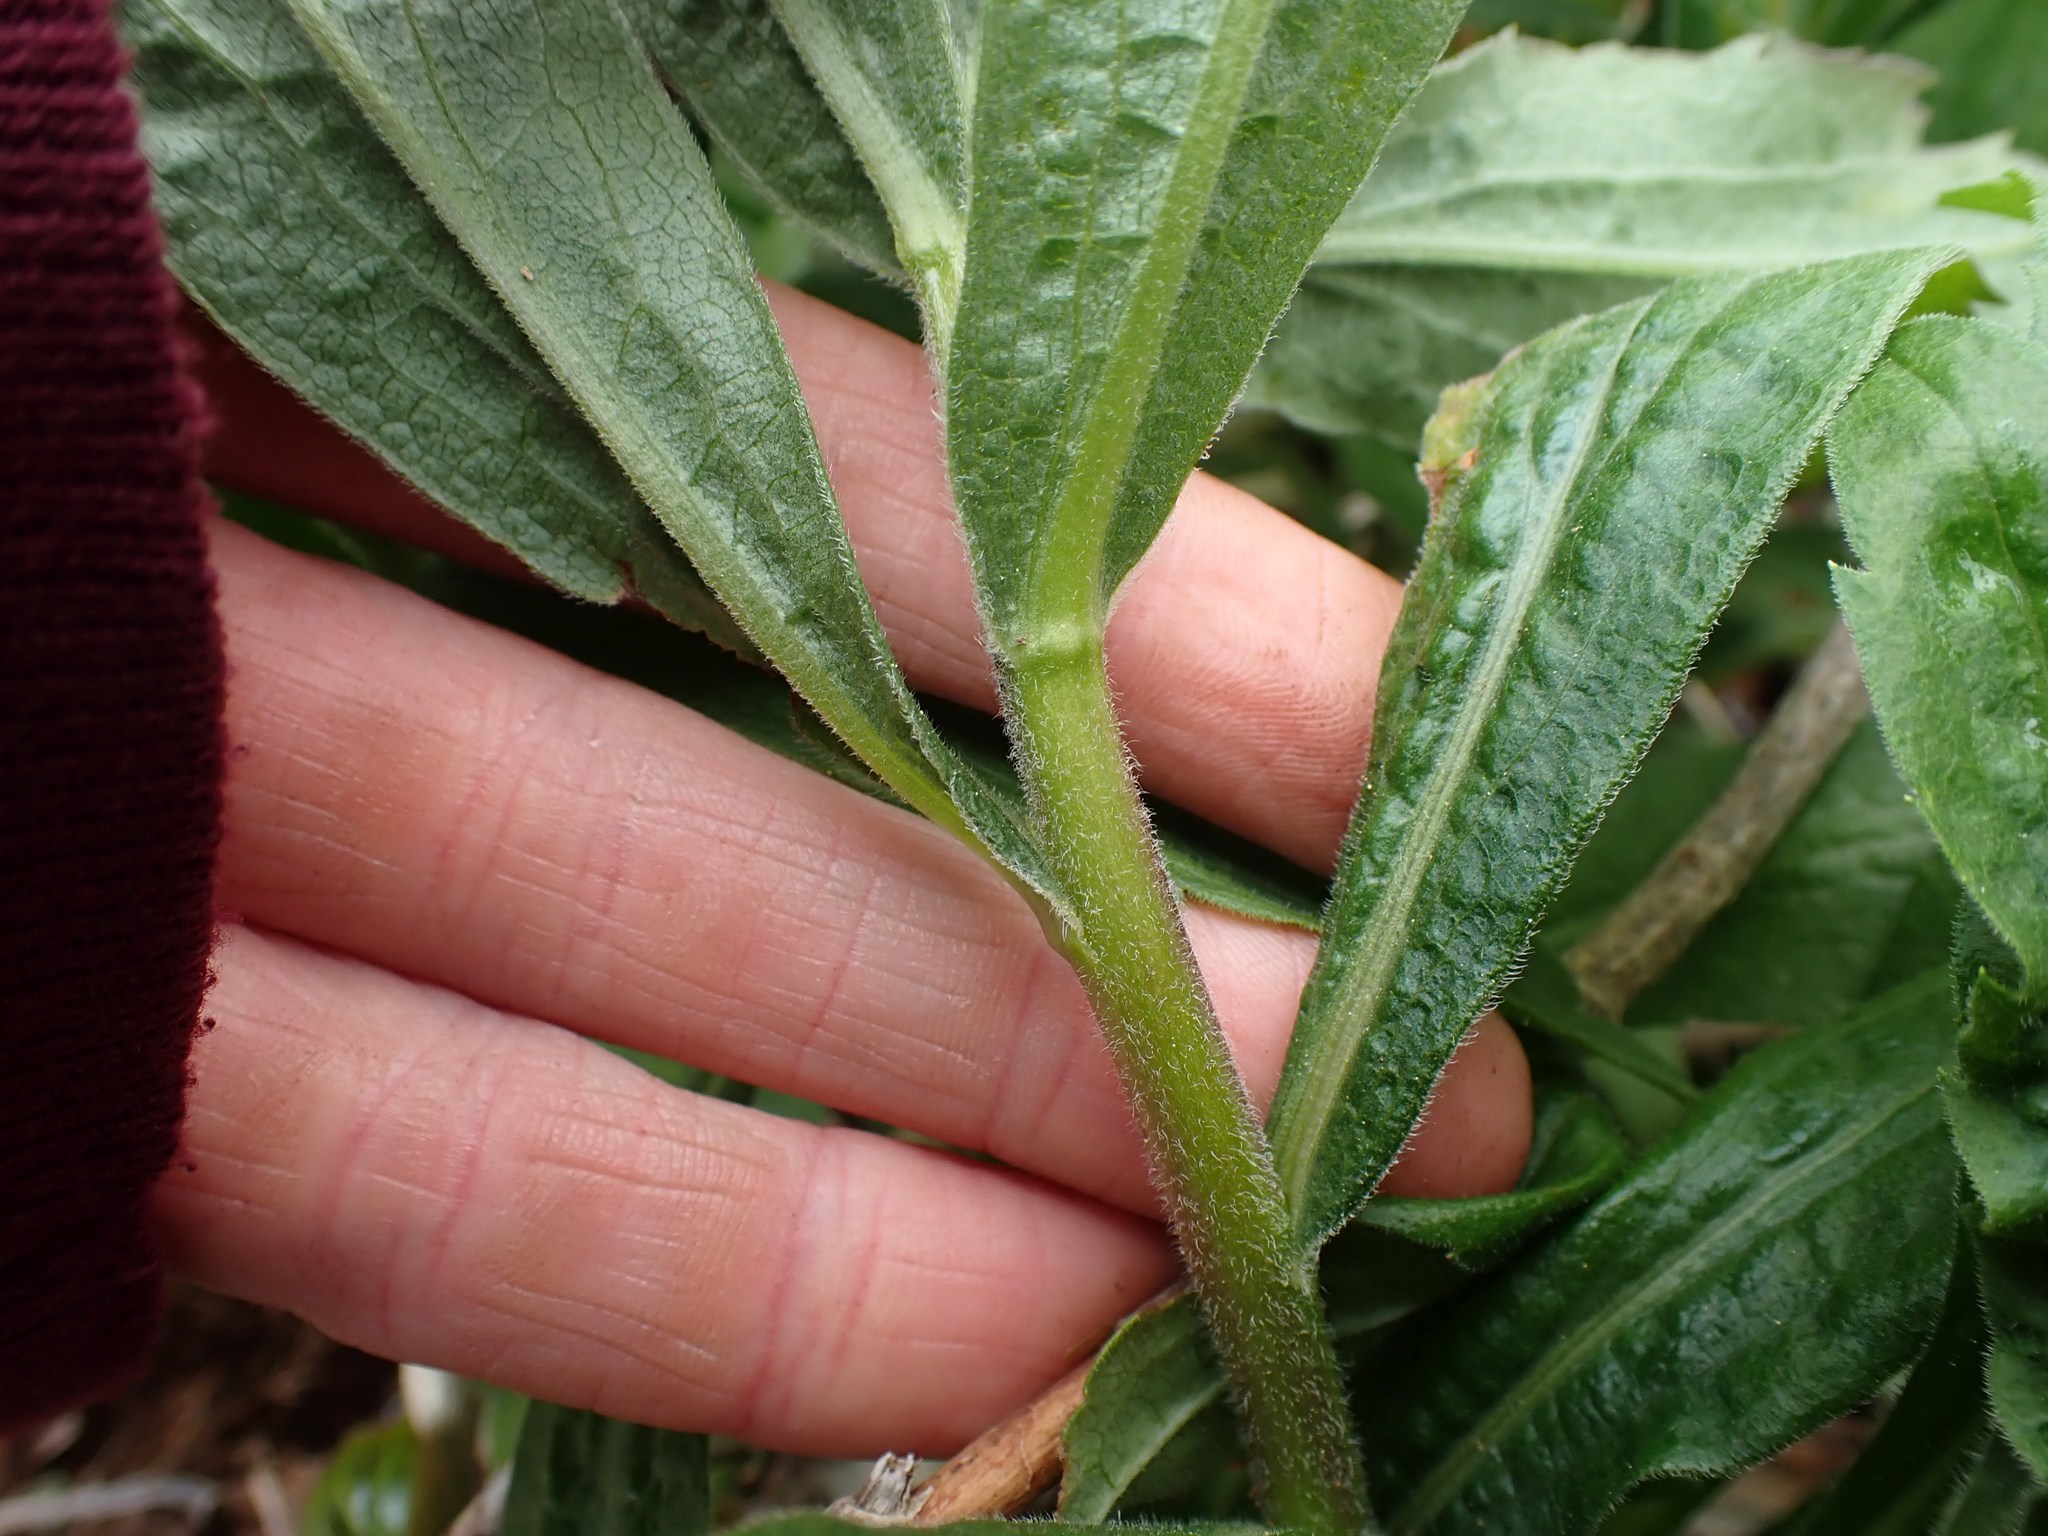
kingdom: Plantae
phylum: Tracheophyta
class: Magnoliopsida
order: Asterales
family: Asteraceae
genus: Artemisia
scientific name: Artemisia suksdorfii
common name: Suksdorf sagewort
